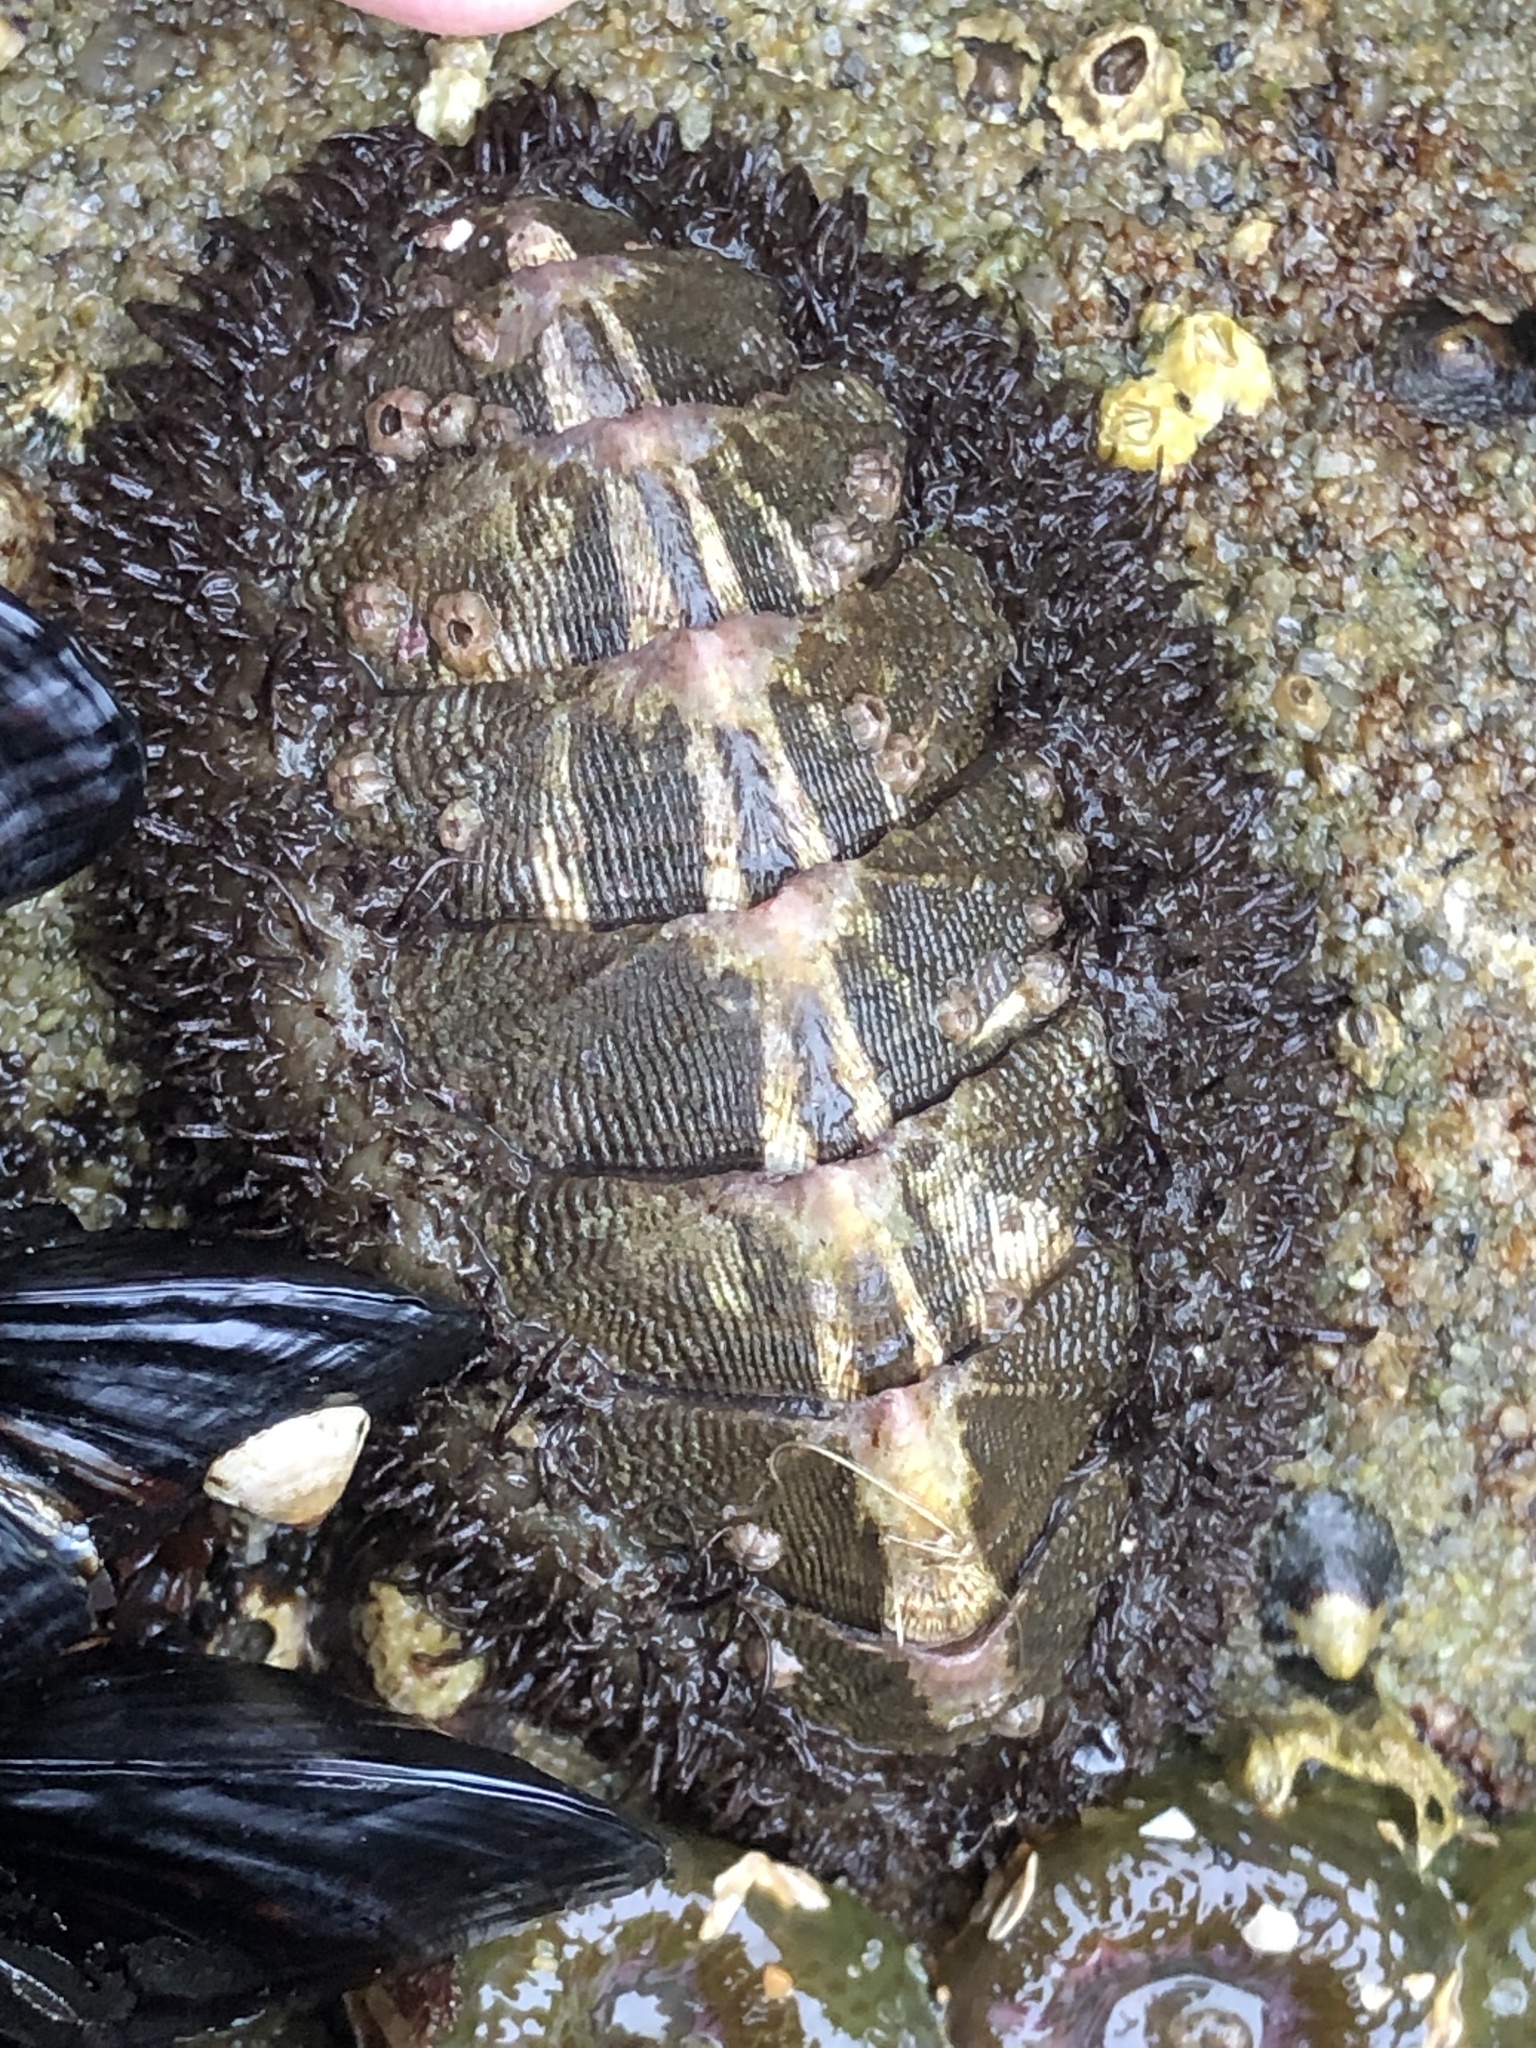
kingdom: Animalia
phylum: Mollusca
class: Polyplacophora
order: Chitonida
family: Mopaliidae
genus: Mopalia
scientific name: Mopalia muscosa
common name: Mossy chiton
